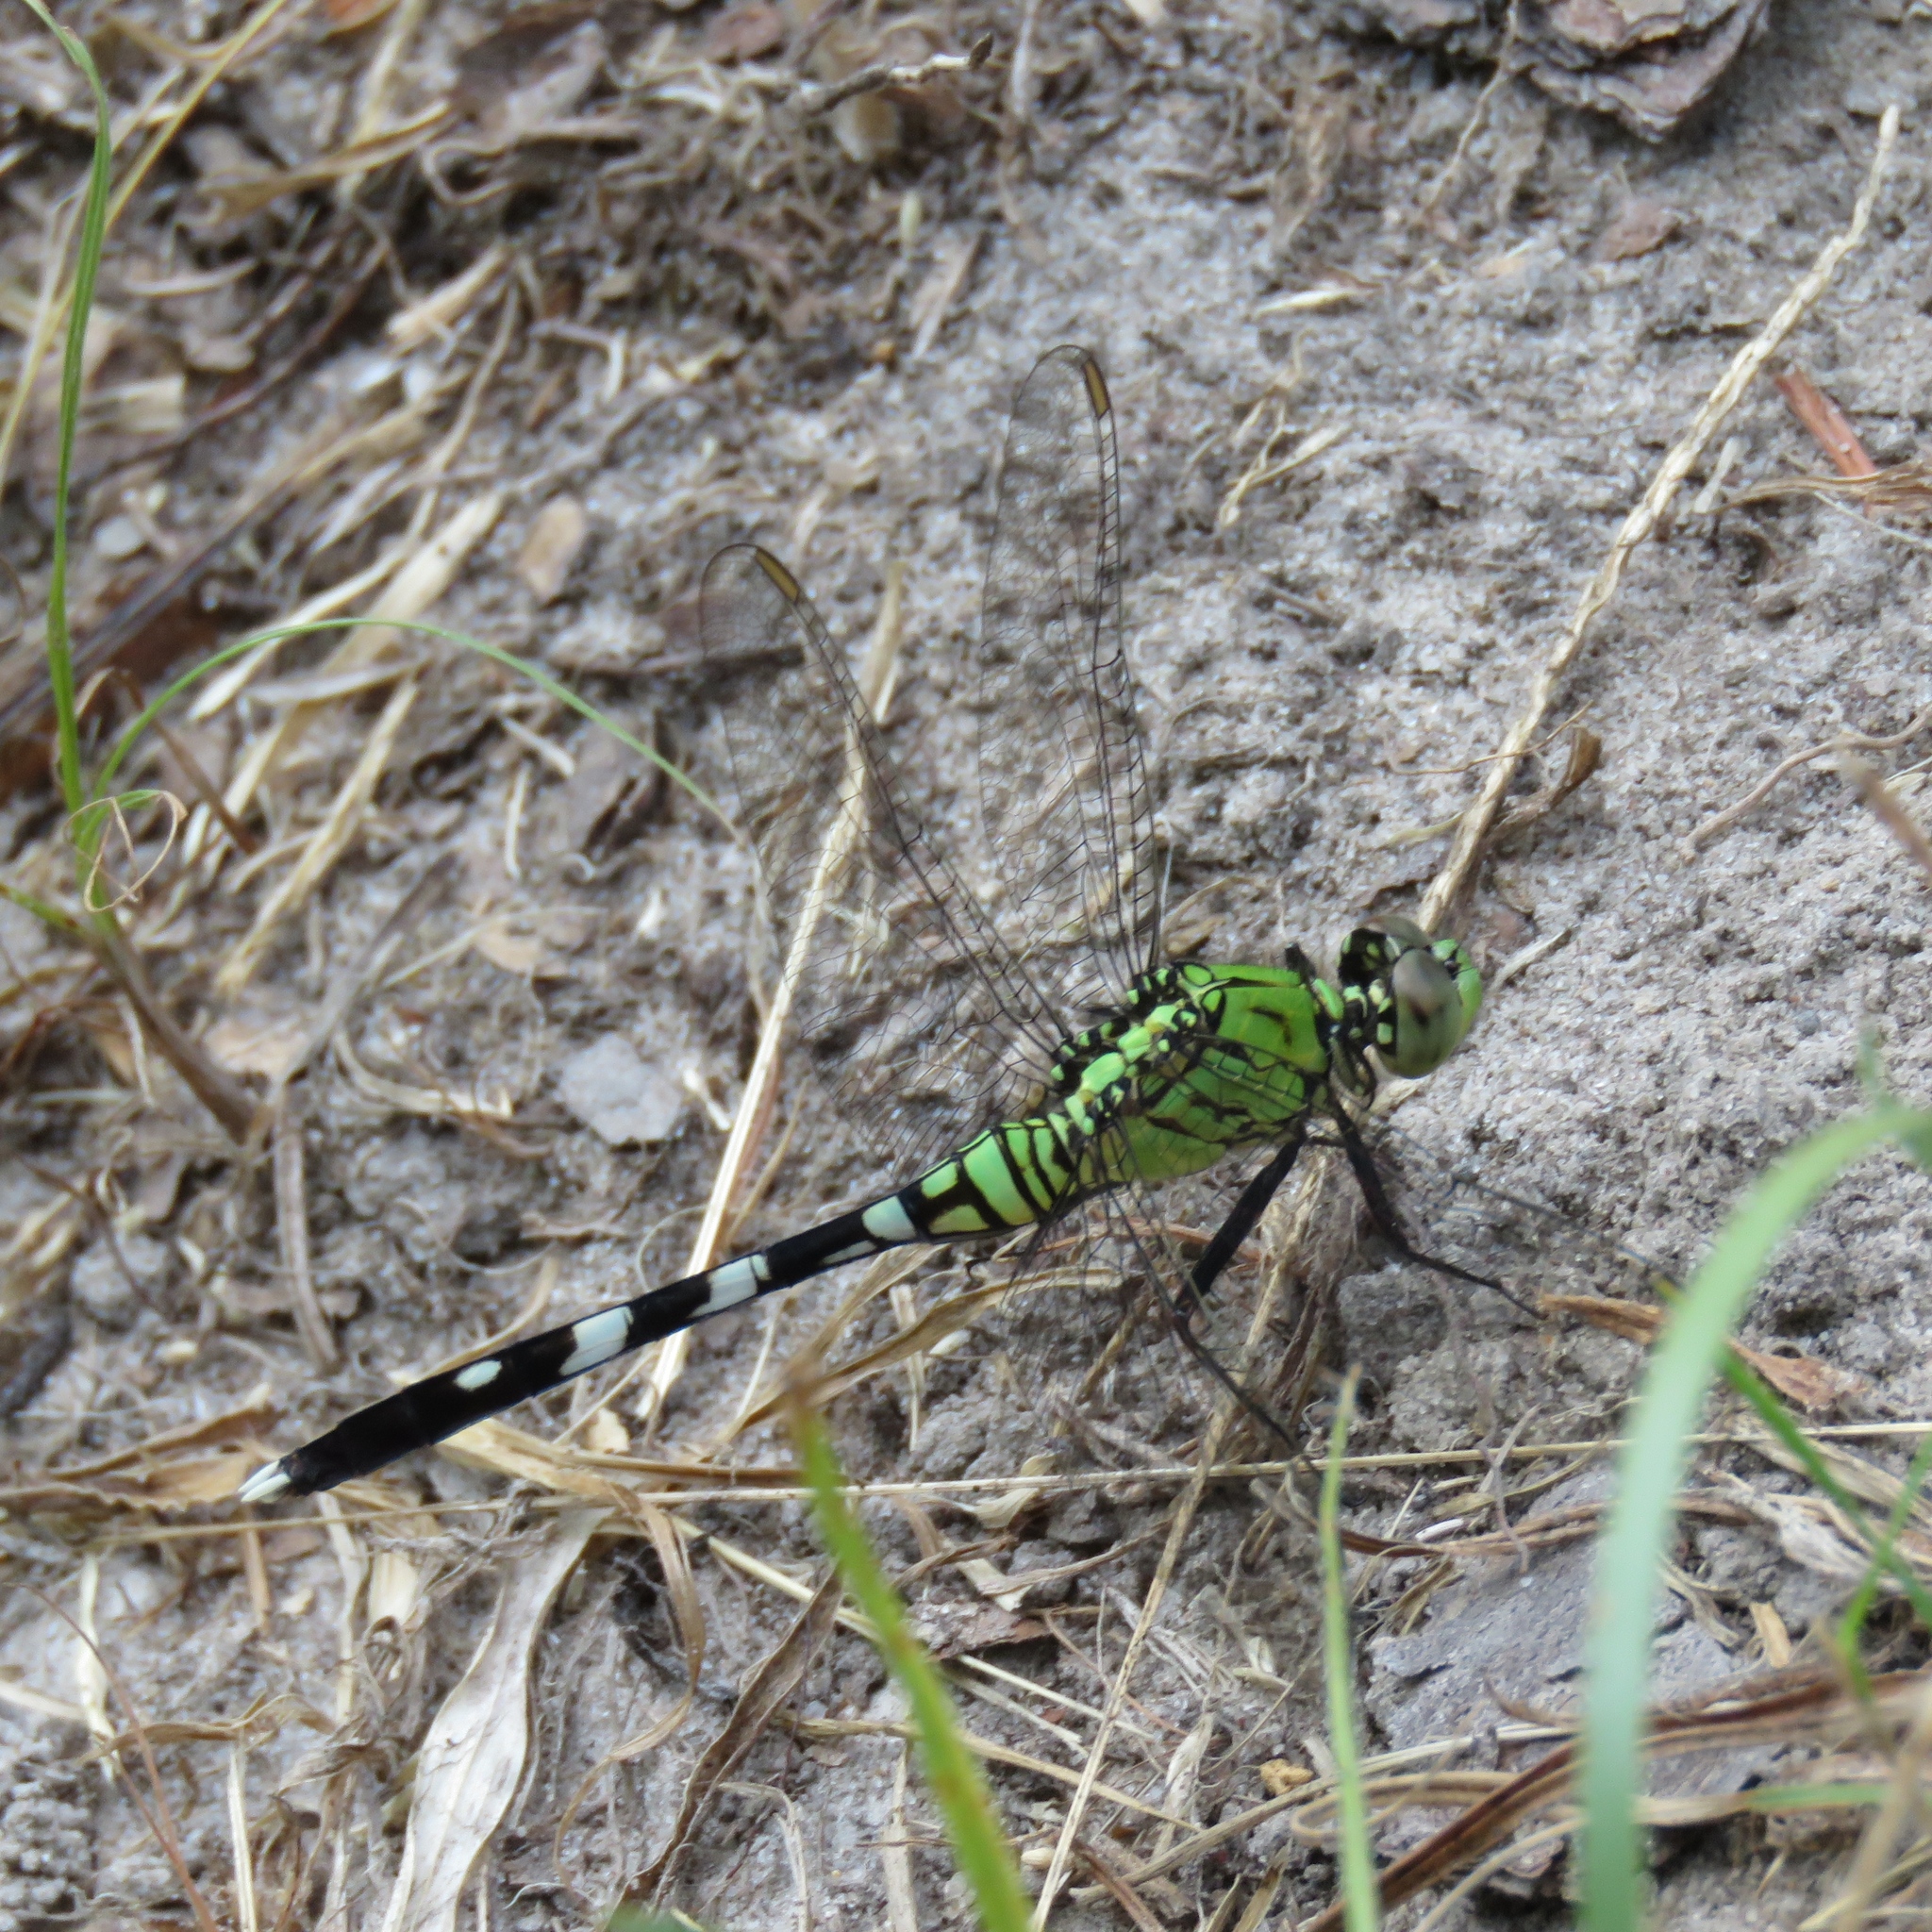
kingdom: Animalia
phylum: Arthropoda
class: Insecta
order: Odonata
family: Libellulidae
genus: Erythemis
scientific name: Erythemis simplicicollis
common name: Eastern pondhawk
